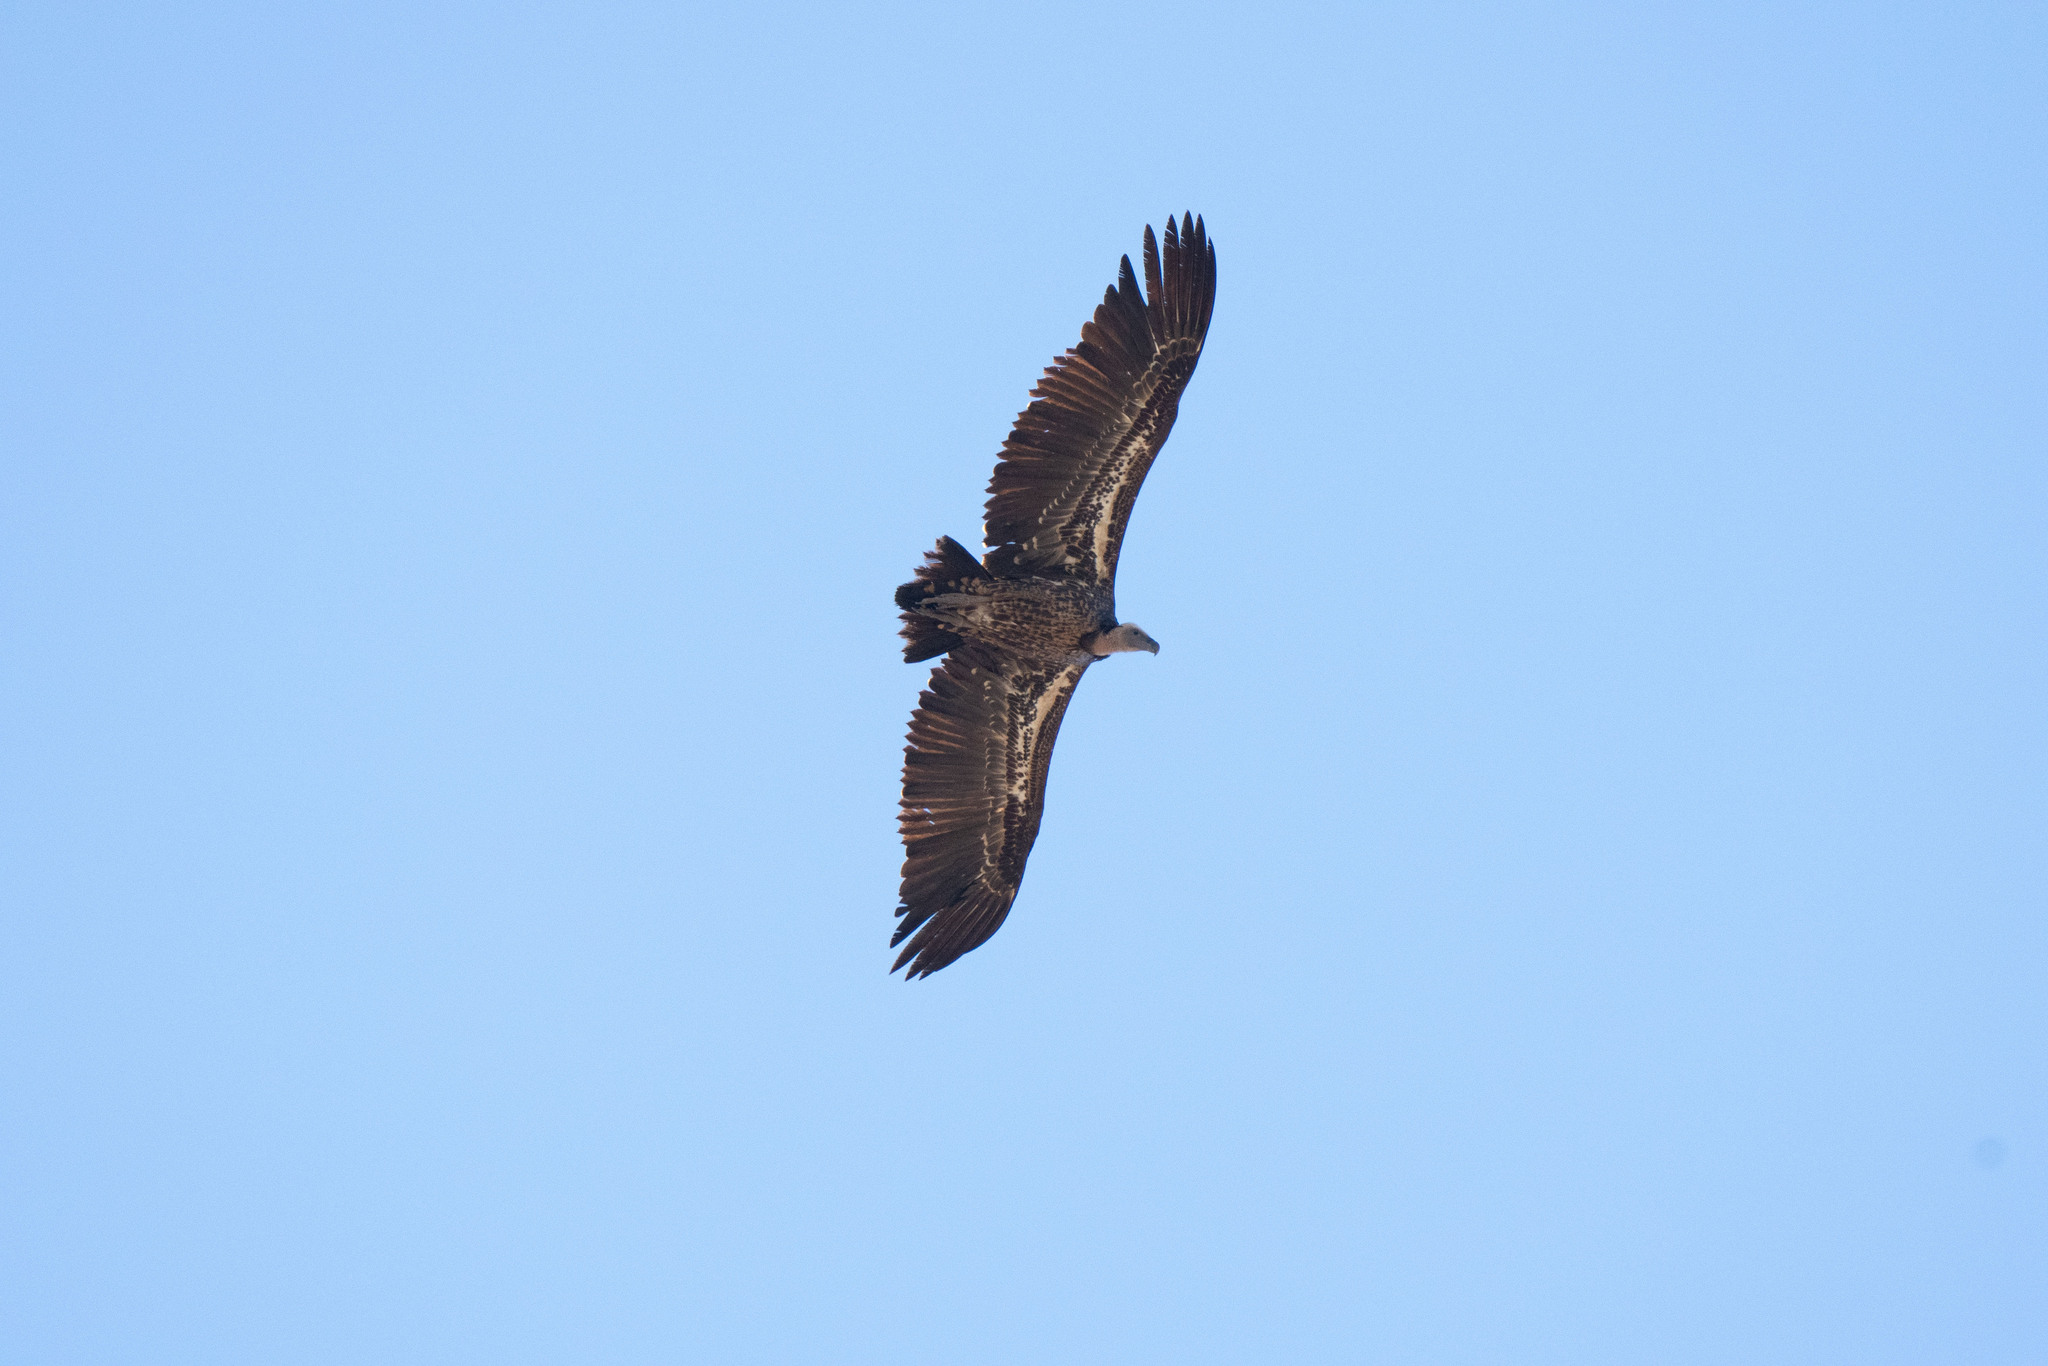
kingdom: Animalia
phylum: Chordata
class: Aves
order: Accipitriformes
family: Accipitridae
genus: Gyps
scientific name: Gyps rueppellii
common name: Rüppell's vulture
